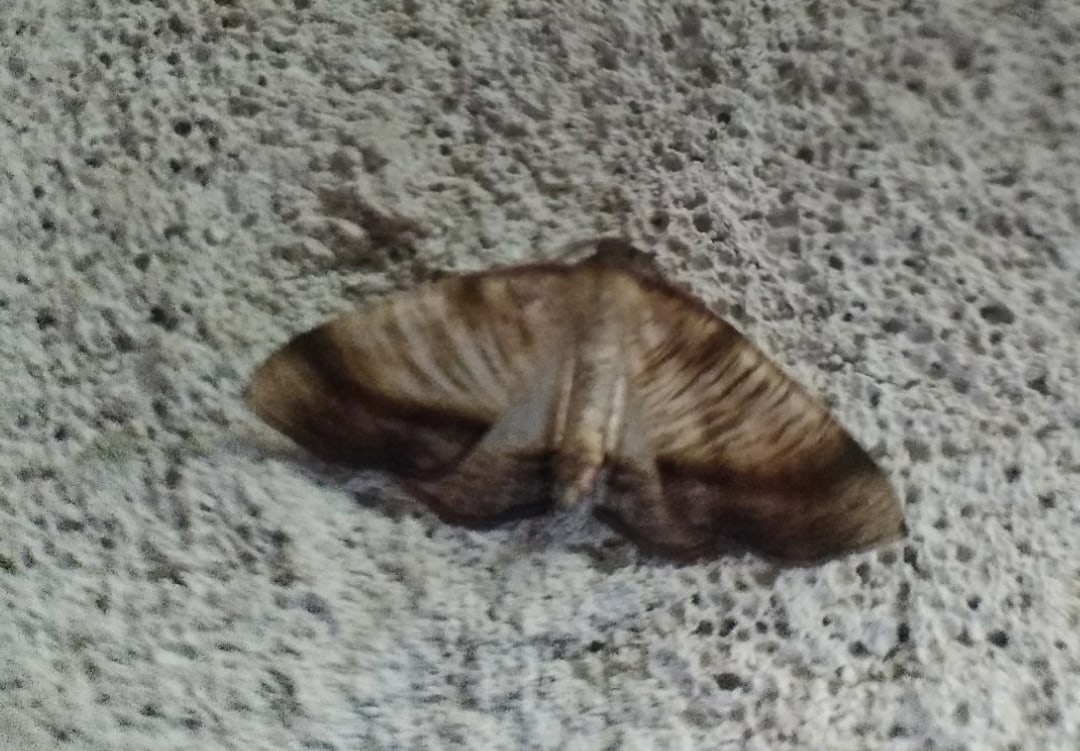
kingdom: Animalia
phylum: Arthropoda
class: Insecta
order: Lepidoptera
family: Geometridae
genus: Plagodis
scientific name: Plagodis dolabraria
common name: Scorched wing
